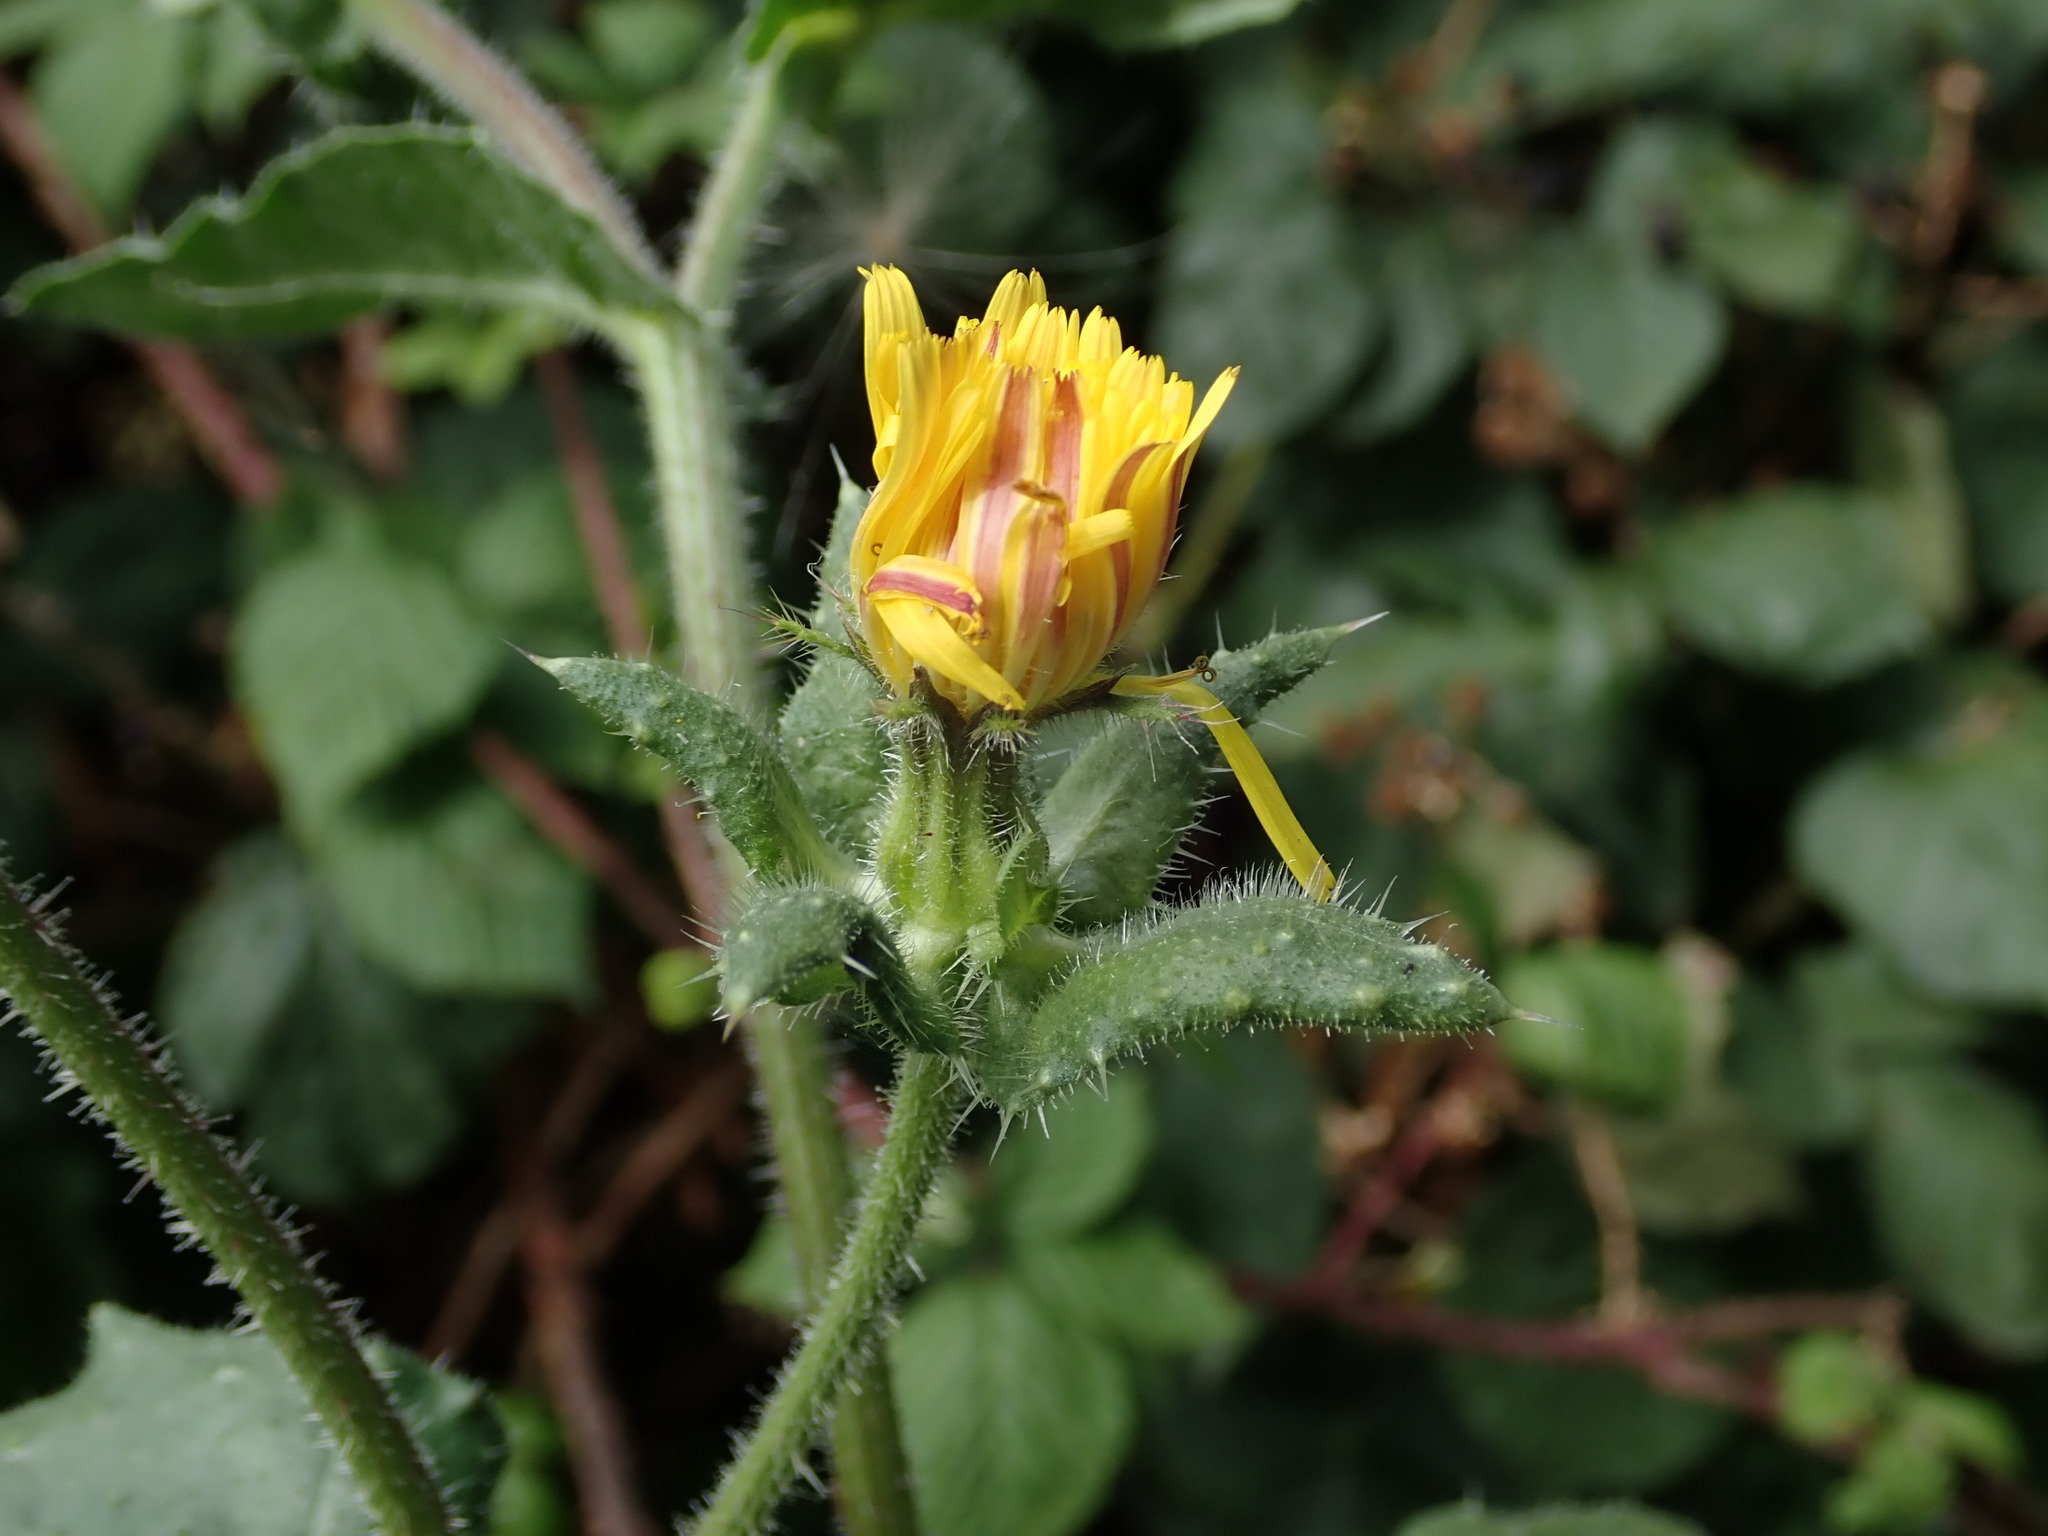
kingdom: Plantae
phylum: Tracheophyta
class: Magnoliopsida
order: Asterales
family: Asteraceae
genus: Helminthotheca
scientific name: Helminthotheca echioides
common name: Ox-tongue
